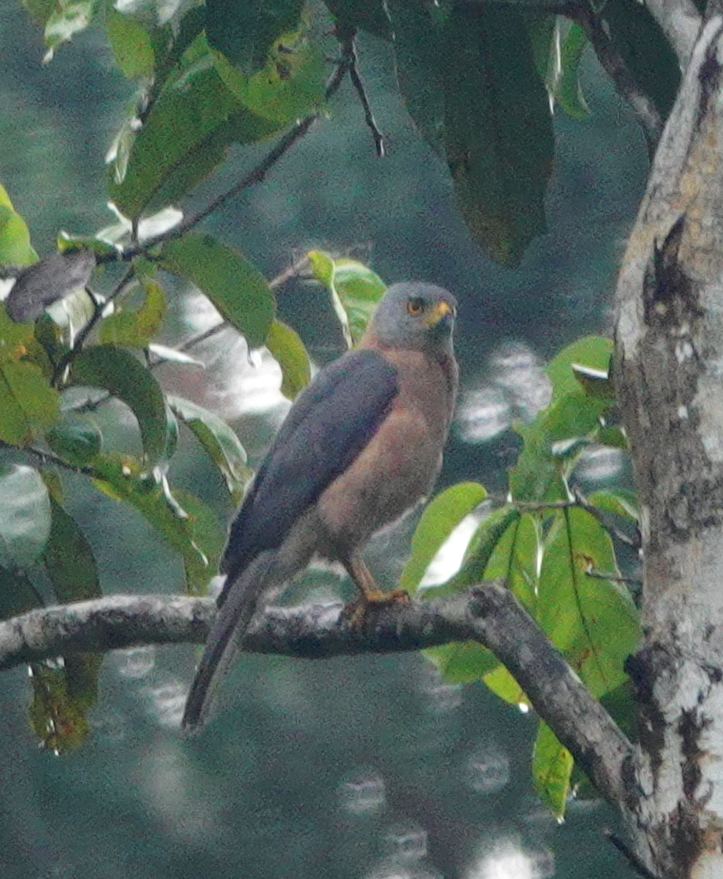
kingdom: Animalia
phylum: Chordata
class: Aves
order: Accipitriformes
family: Accipitridae
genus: Accipiter
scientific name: Accipiter hiogaster
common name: Variable goshawk
